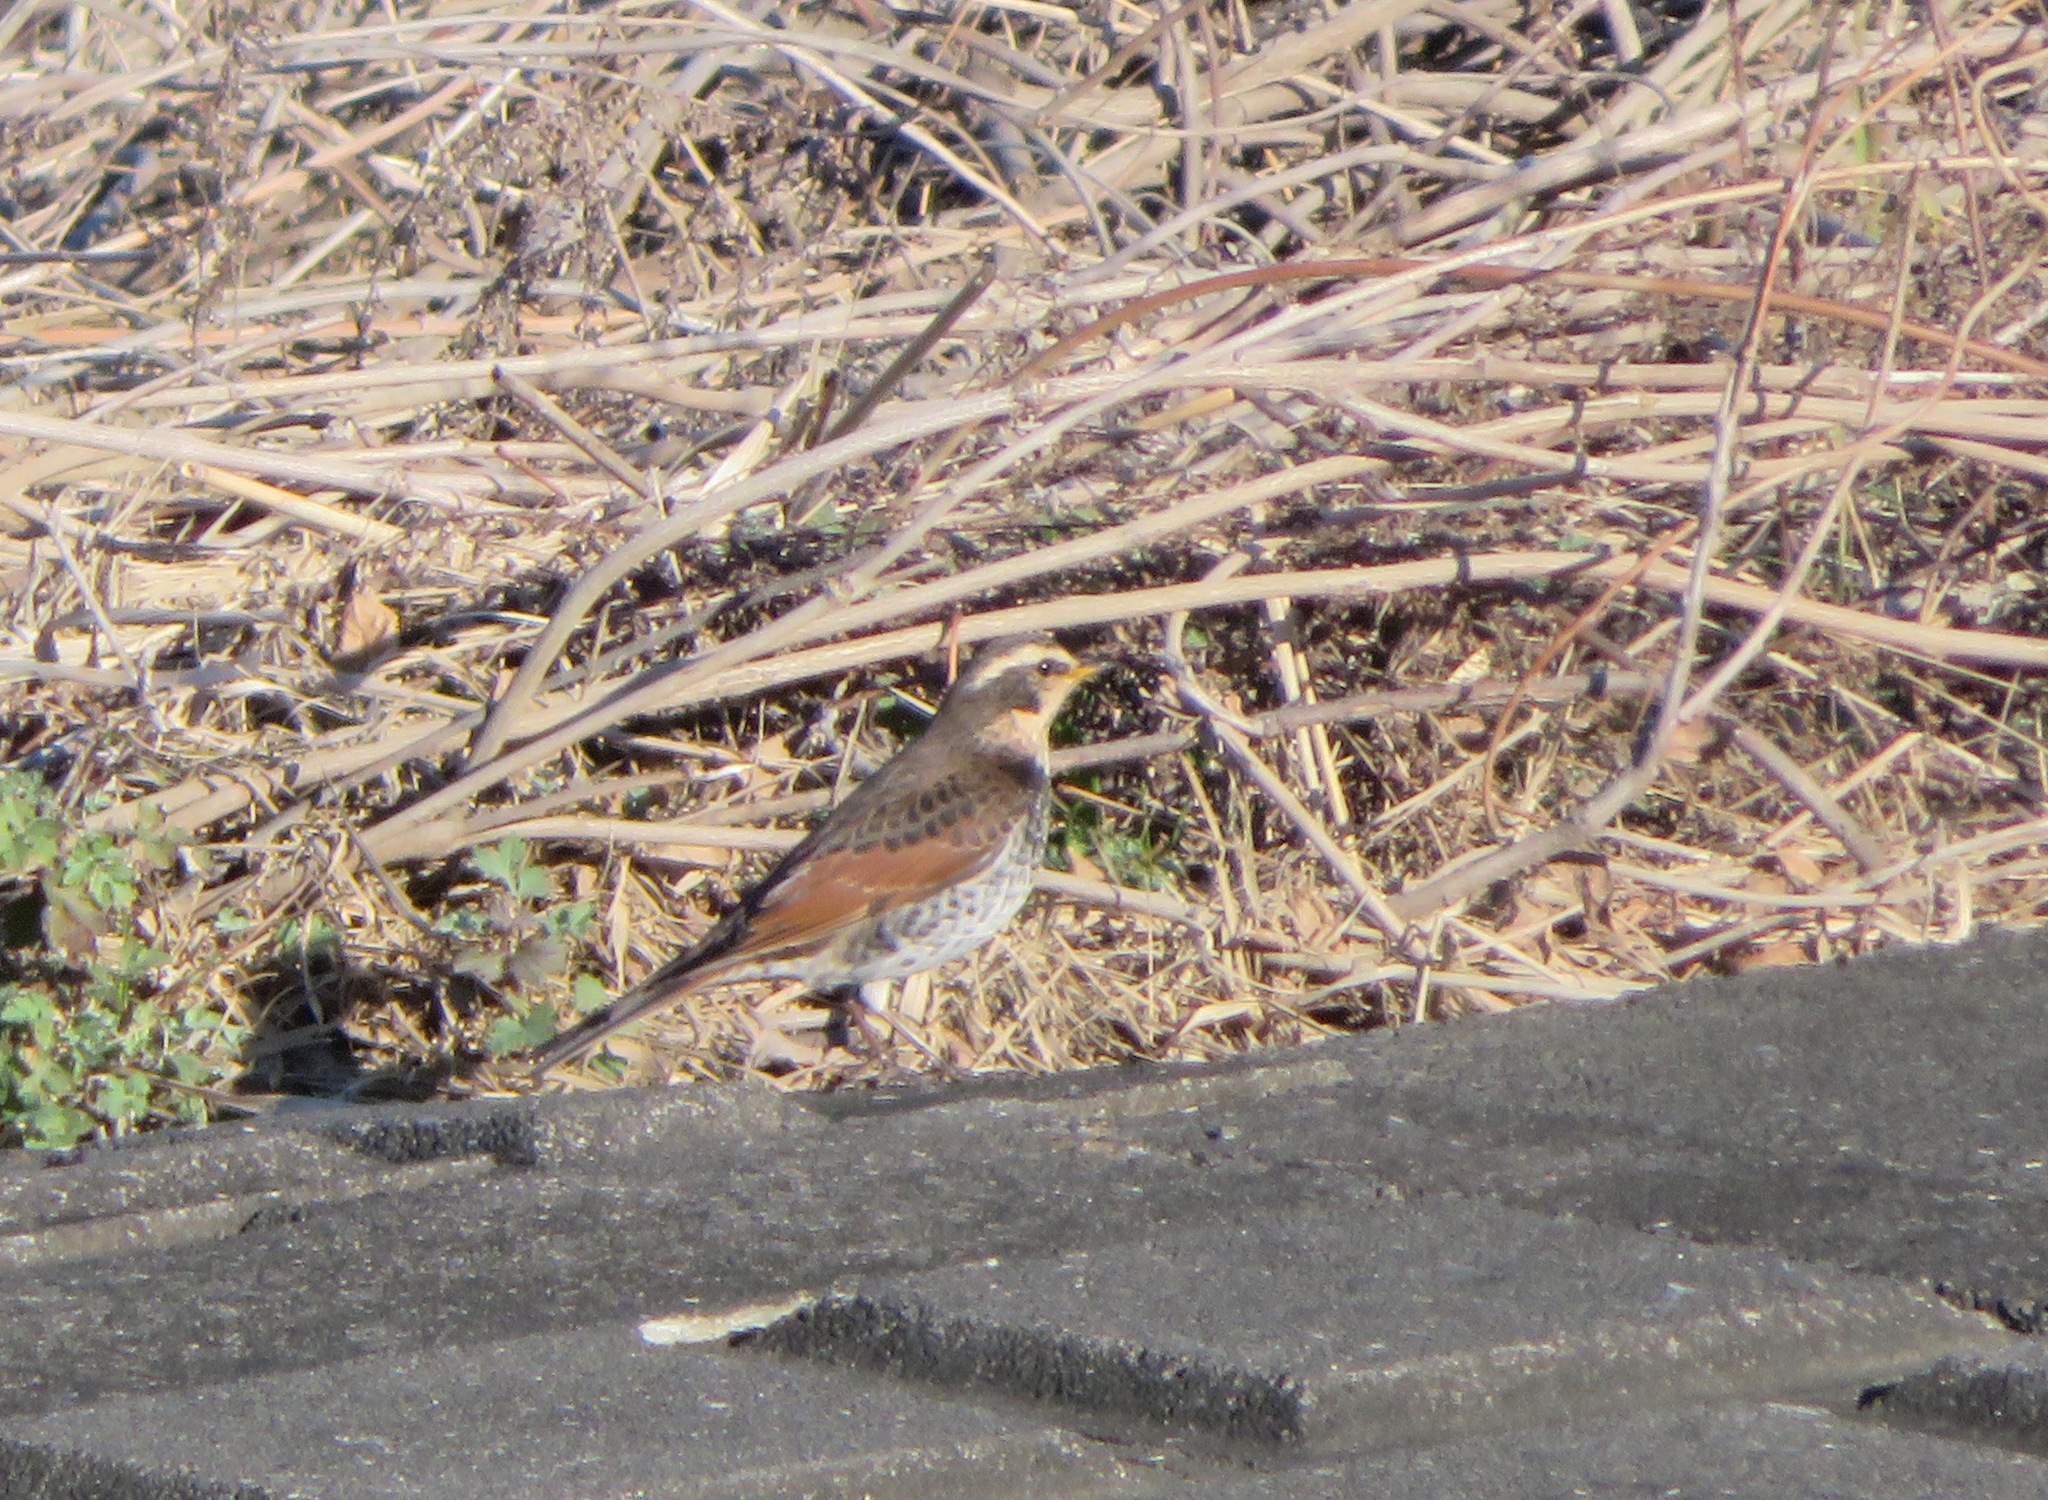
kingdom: Animalia
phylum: Chordata
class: Aves
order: Passeriformes
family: Turdidae
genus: Turdus
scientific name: Turdus eunomus
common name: Dusky thrush
